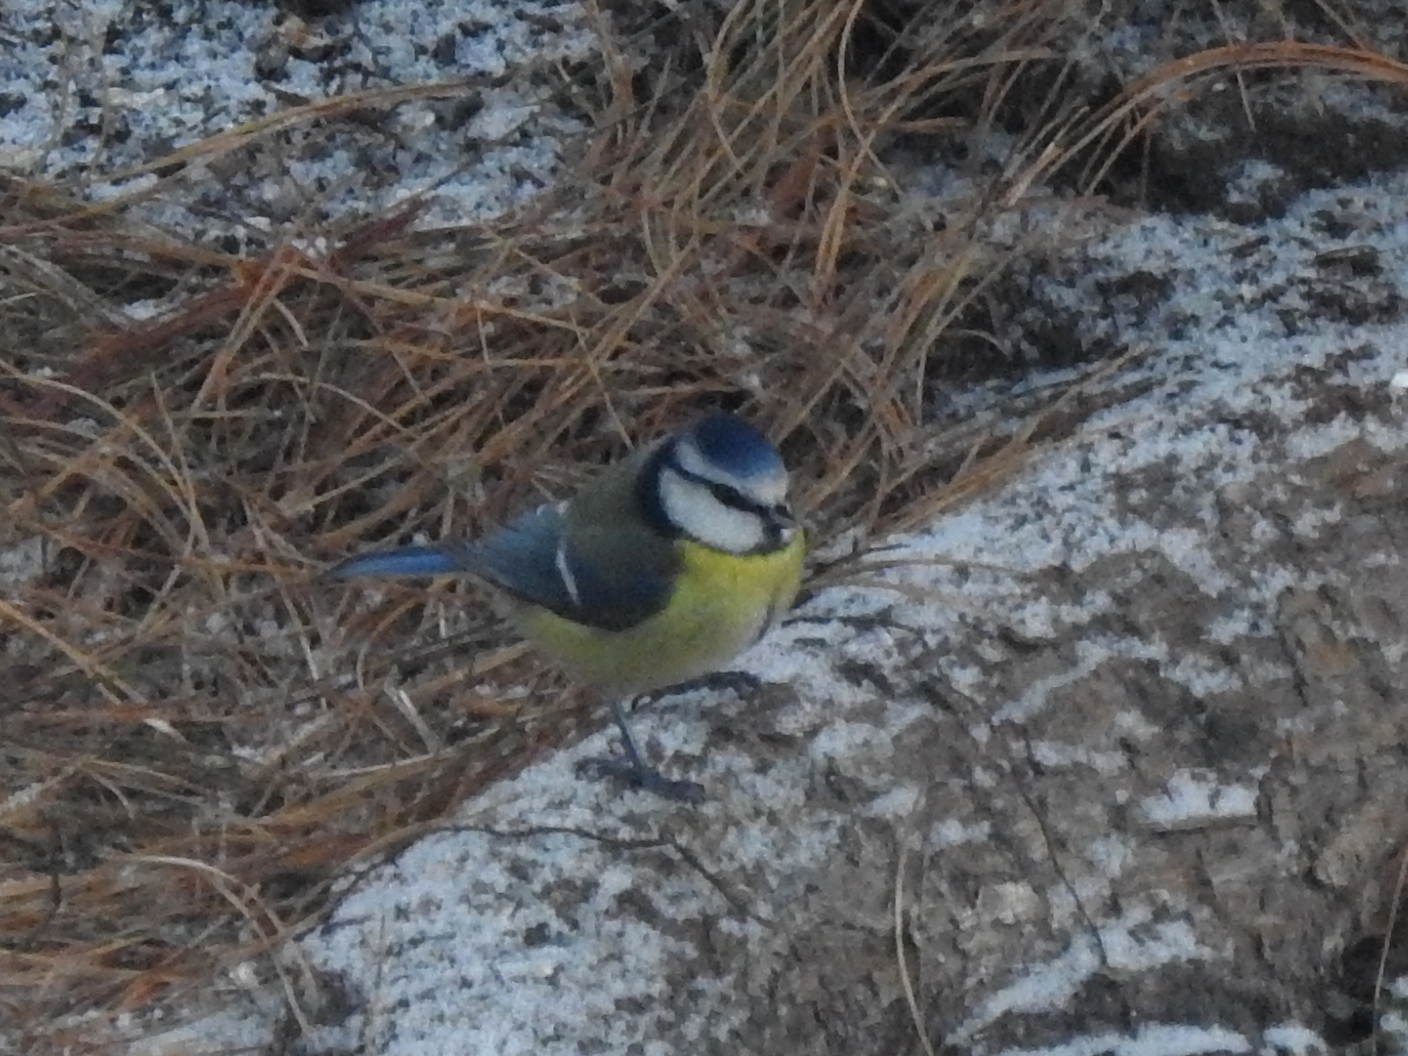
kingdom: Animalia
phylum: Chordata
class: Aves
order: Passeriformes
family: Paridae
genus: Cyanistes
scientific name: Cyanistes caeruleus
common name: Eurasian blue tit
